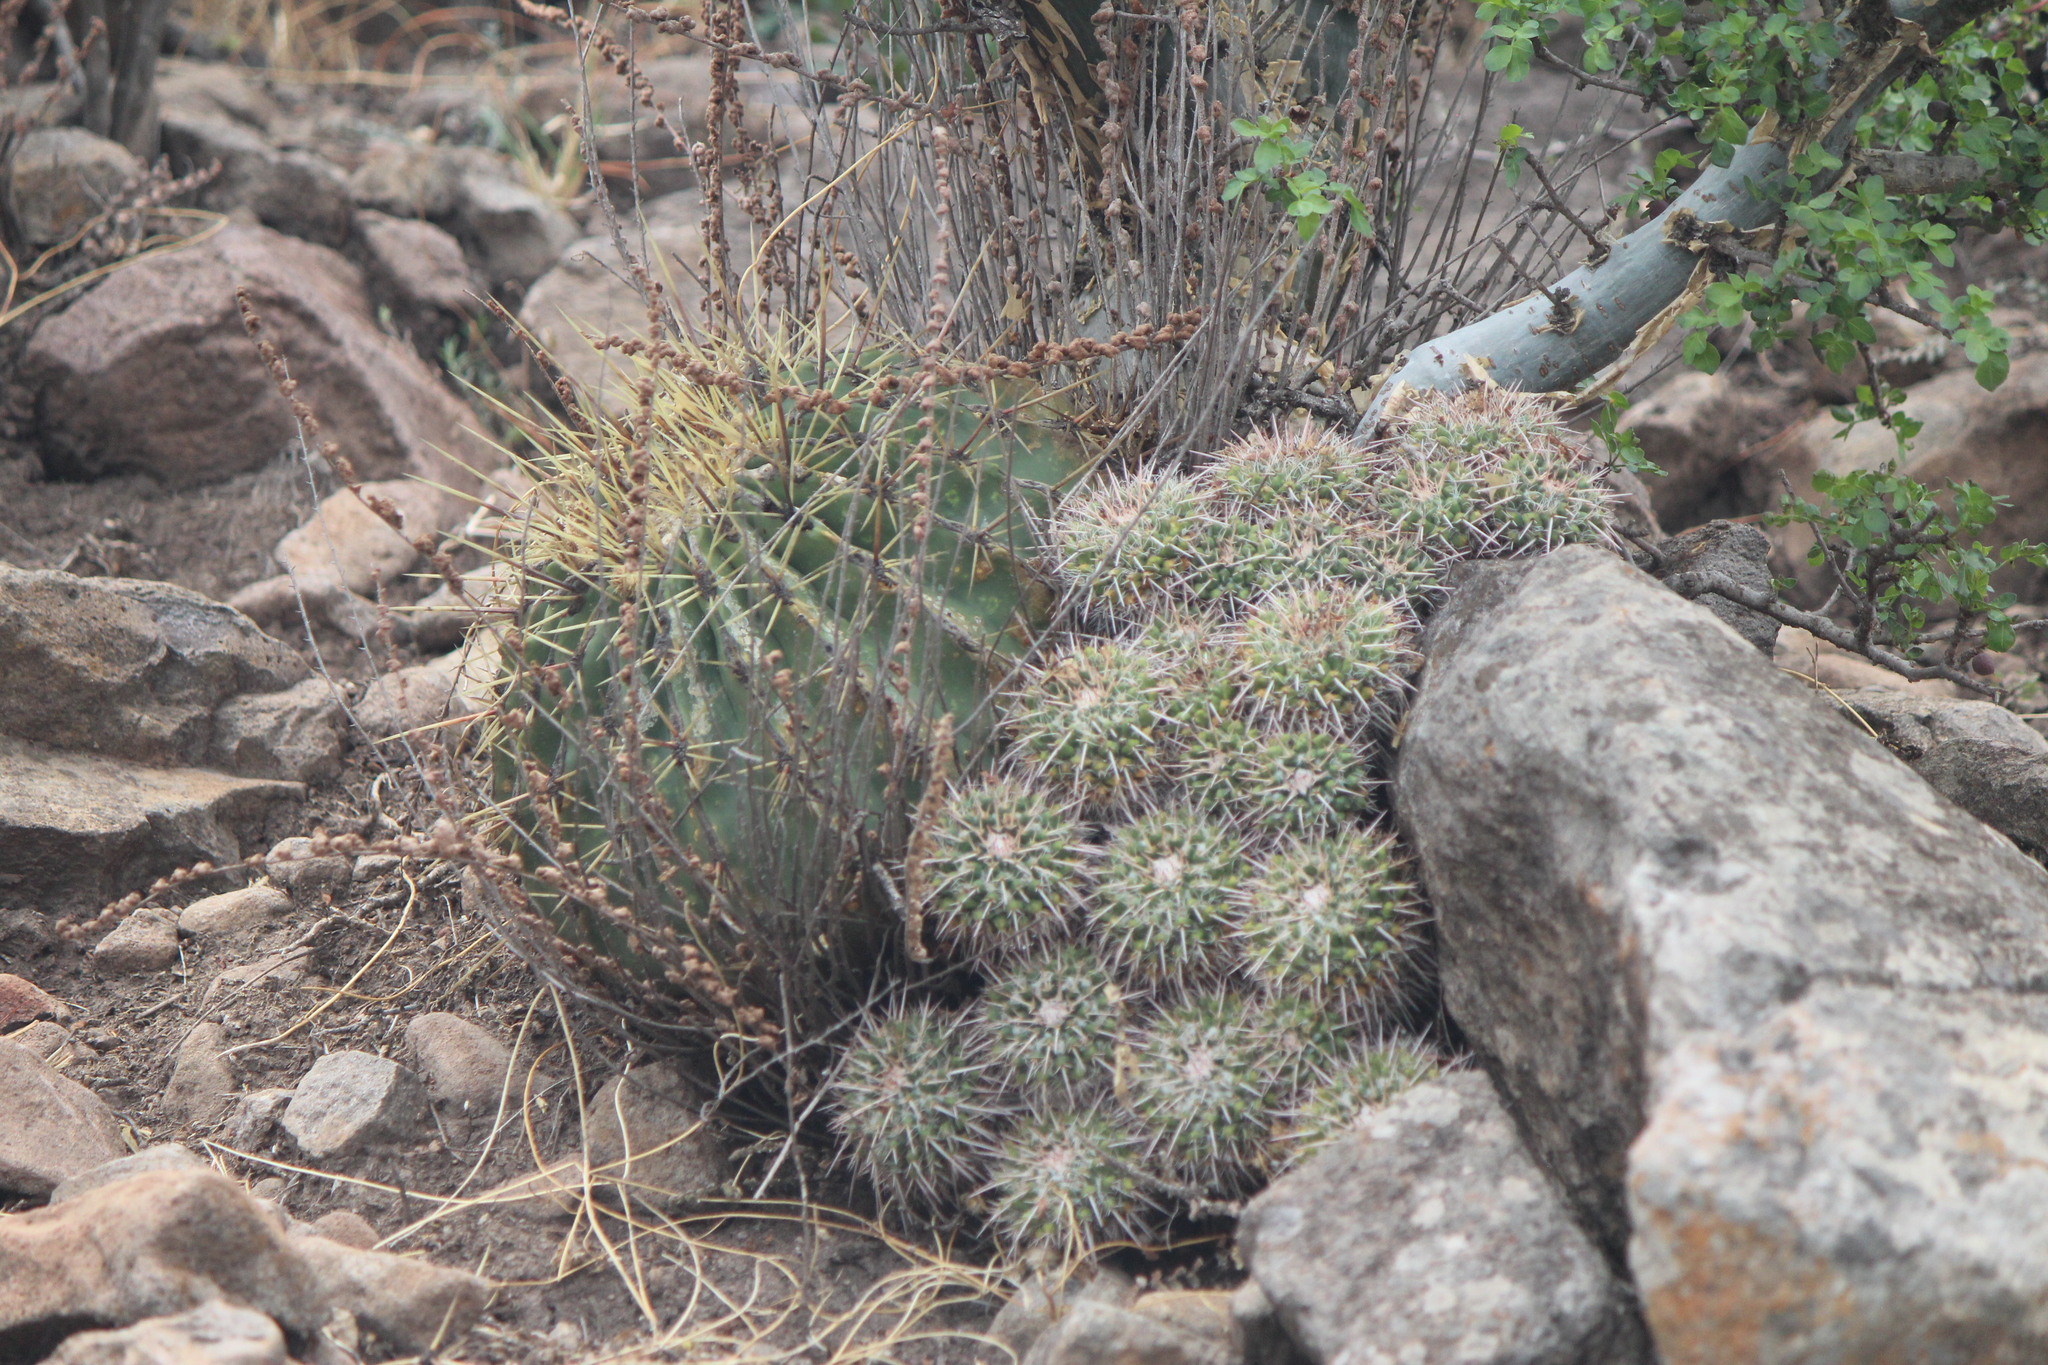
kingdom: Plantae
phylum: Tracheophyta
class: Magnoliopsida
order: Caryophyllales
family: Cactaceae
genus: Mammillaria
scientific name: Mammillaria compressa
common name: Mother-of-hundreds
